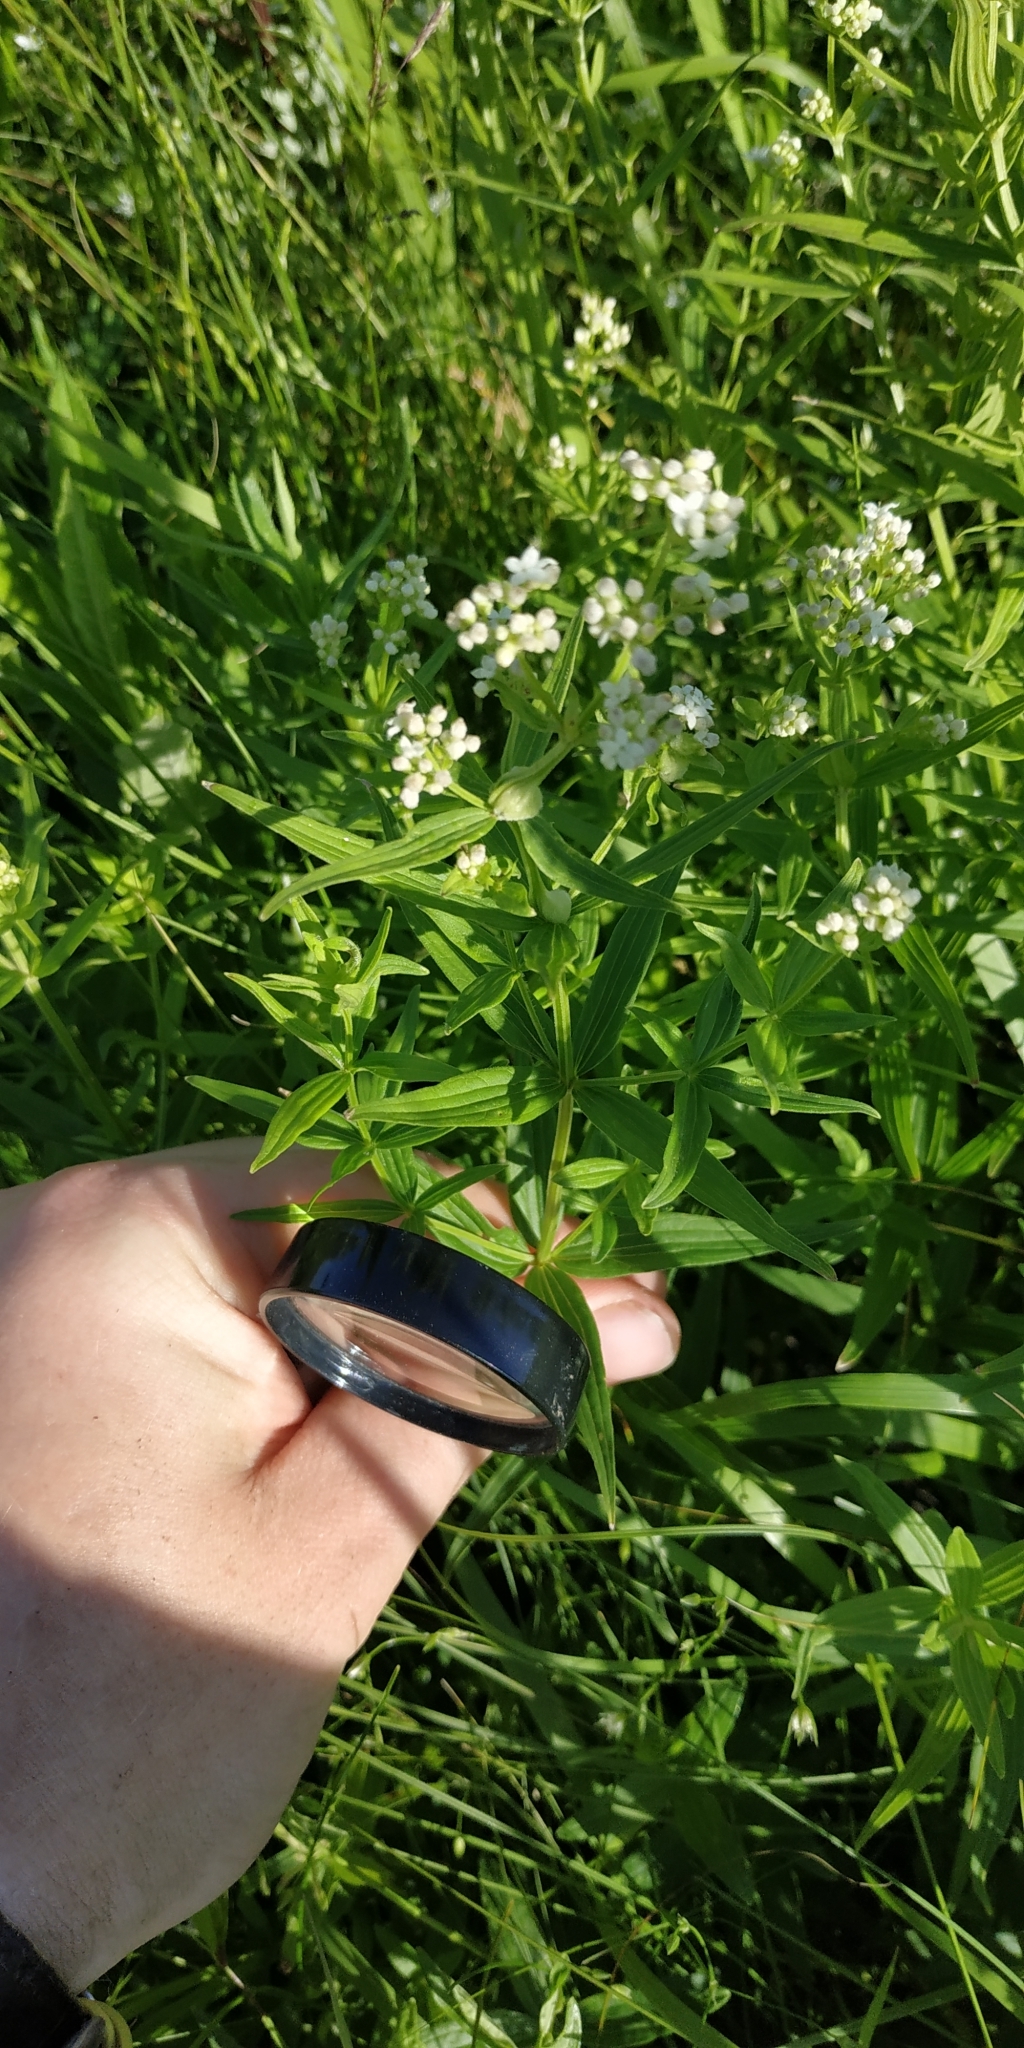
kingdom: Plantae
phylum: Tracheophyta
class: Magnoliopsida
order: Gentianales
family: Rubiaceae
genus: Galium
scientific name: Galium boreale
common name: Northern bedstraw
